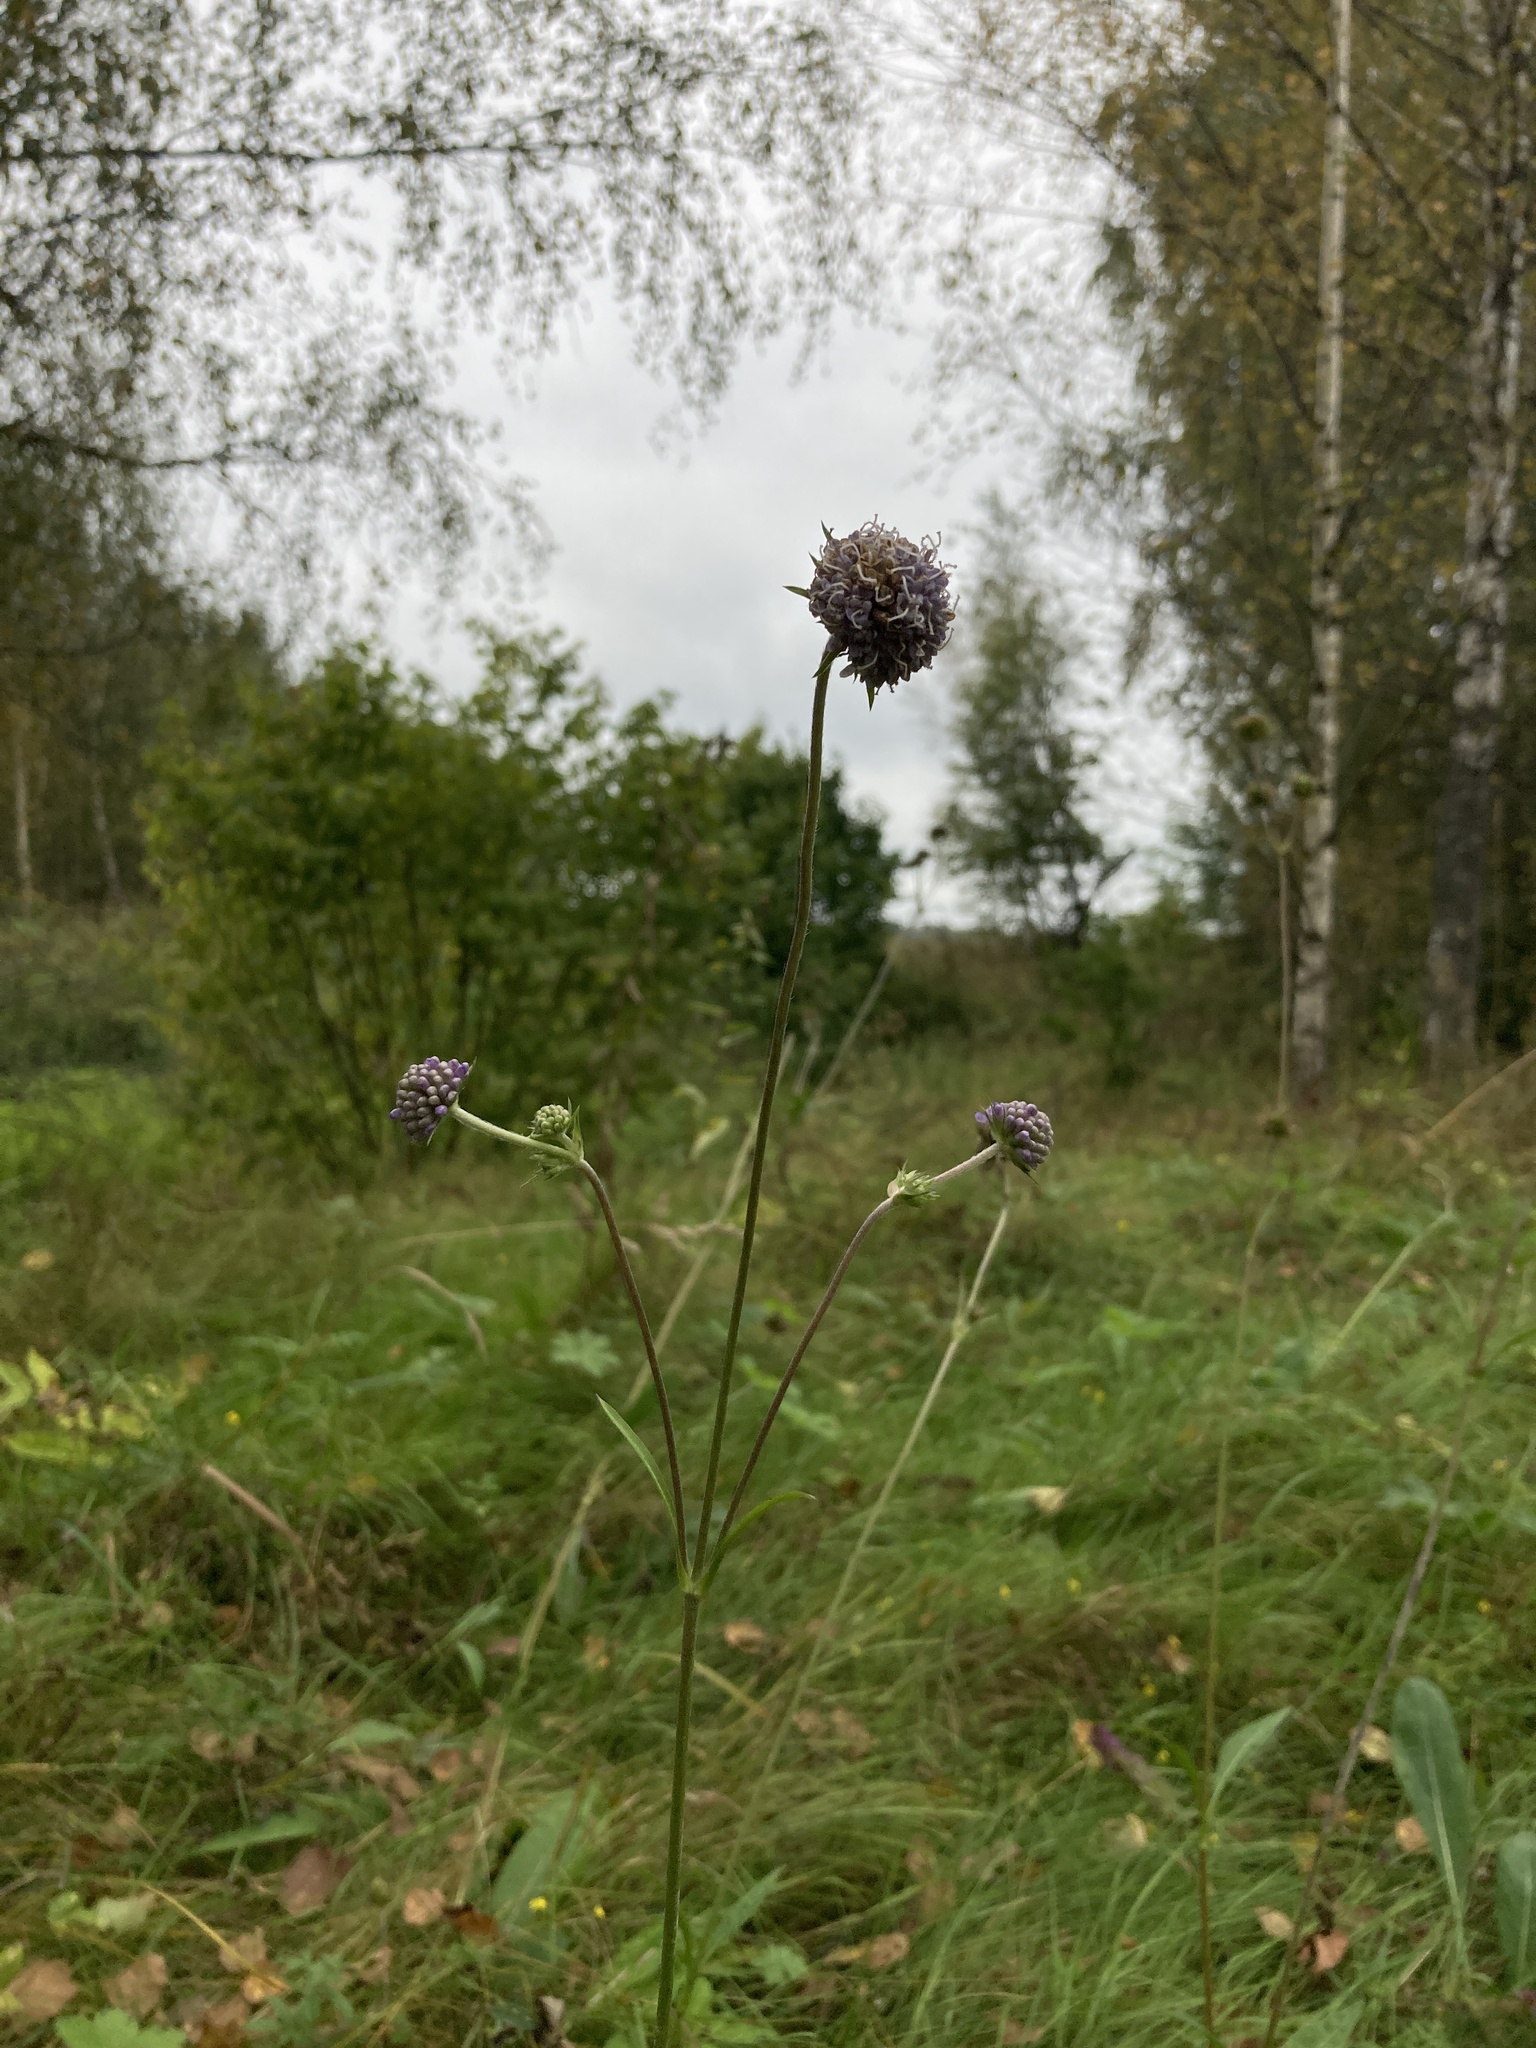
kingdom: Plantae
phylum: Tracheophyta
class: Magnoliopsida
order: Dipsacales
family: Caprifoliaceae
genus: Succisa
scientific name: Succisa pratensis
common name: Devil's-bit
